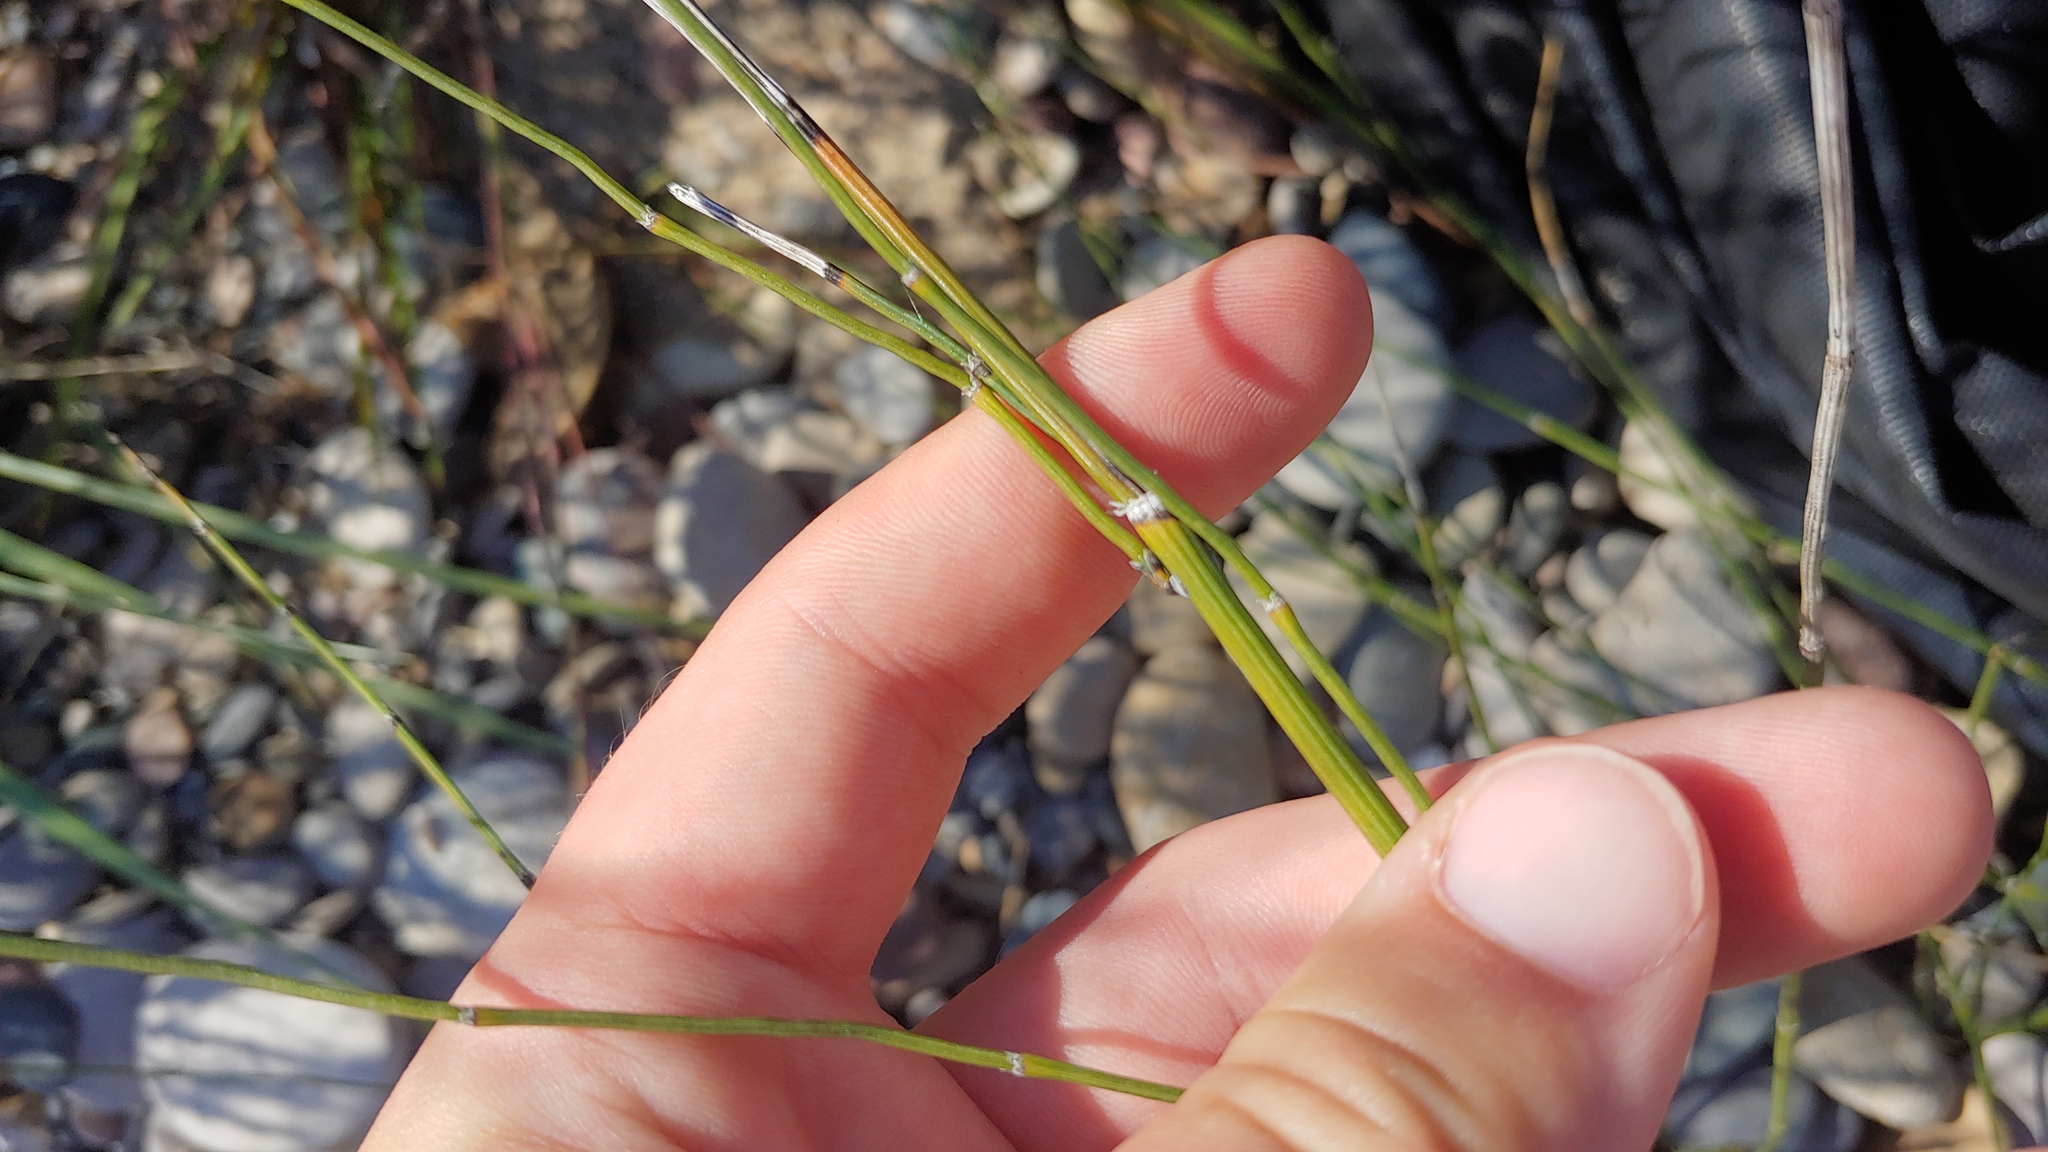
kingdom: Plantae
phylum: Tracheophyta
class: Polypodiopsida
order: Equisetales
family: Equisetaceae
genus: Equisetum
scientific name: Equisetum ferrissii
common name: Ferriss' horsetail
